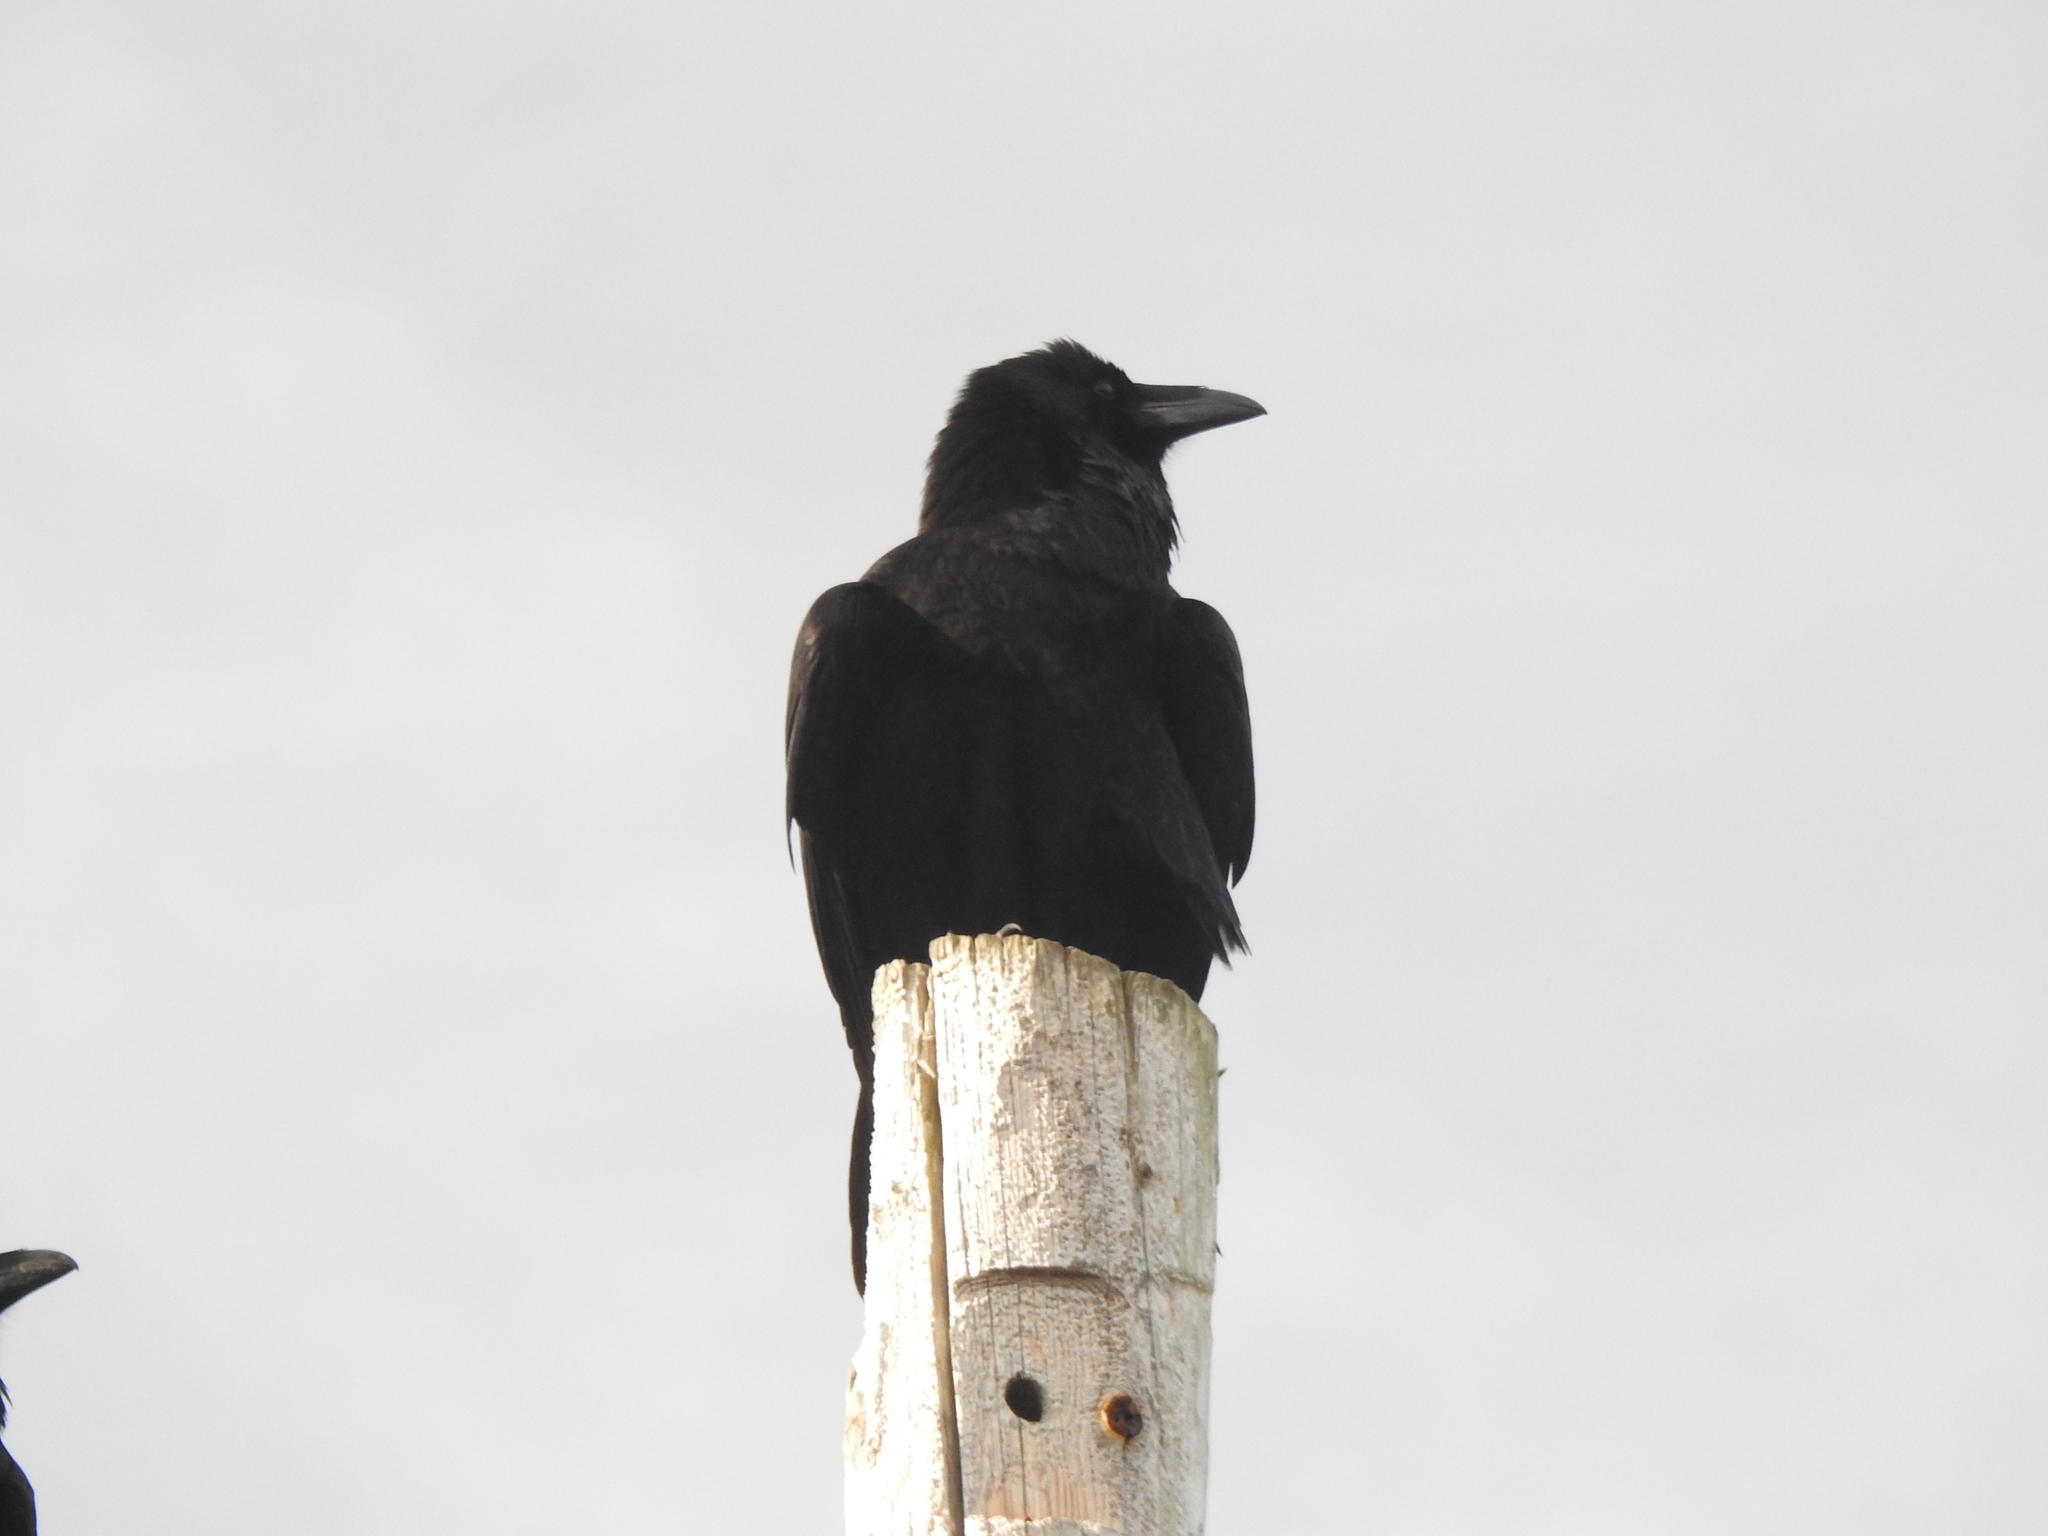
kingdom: Animalia
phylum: Chordata
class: Aves
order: Passeriformes
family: Corvidae
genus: Corvus
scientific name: Corvus corax
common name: Common raven
